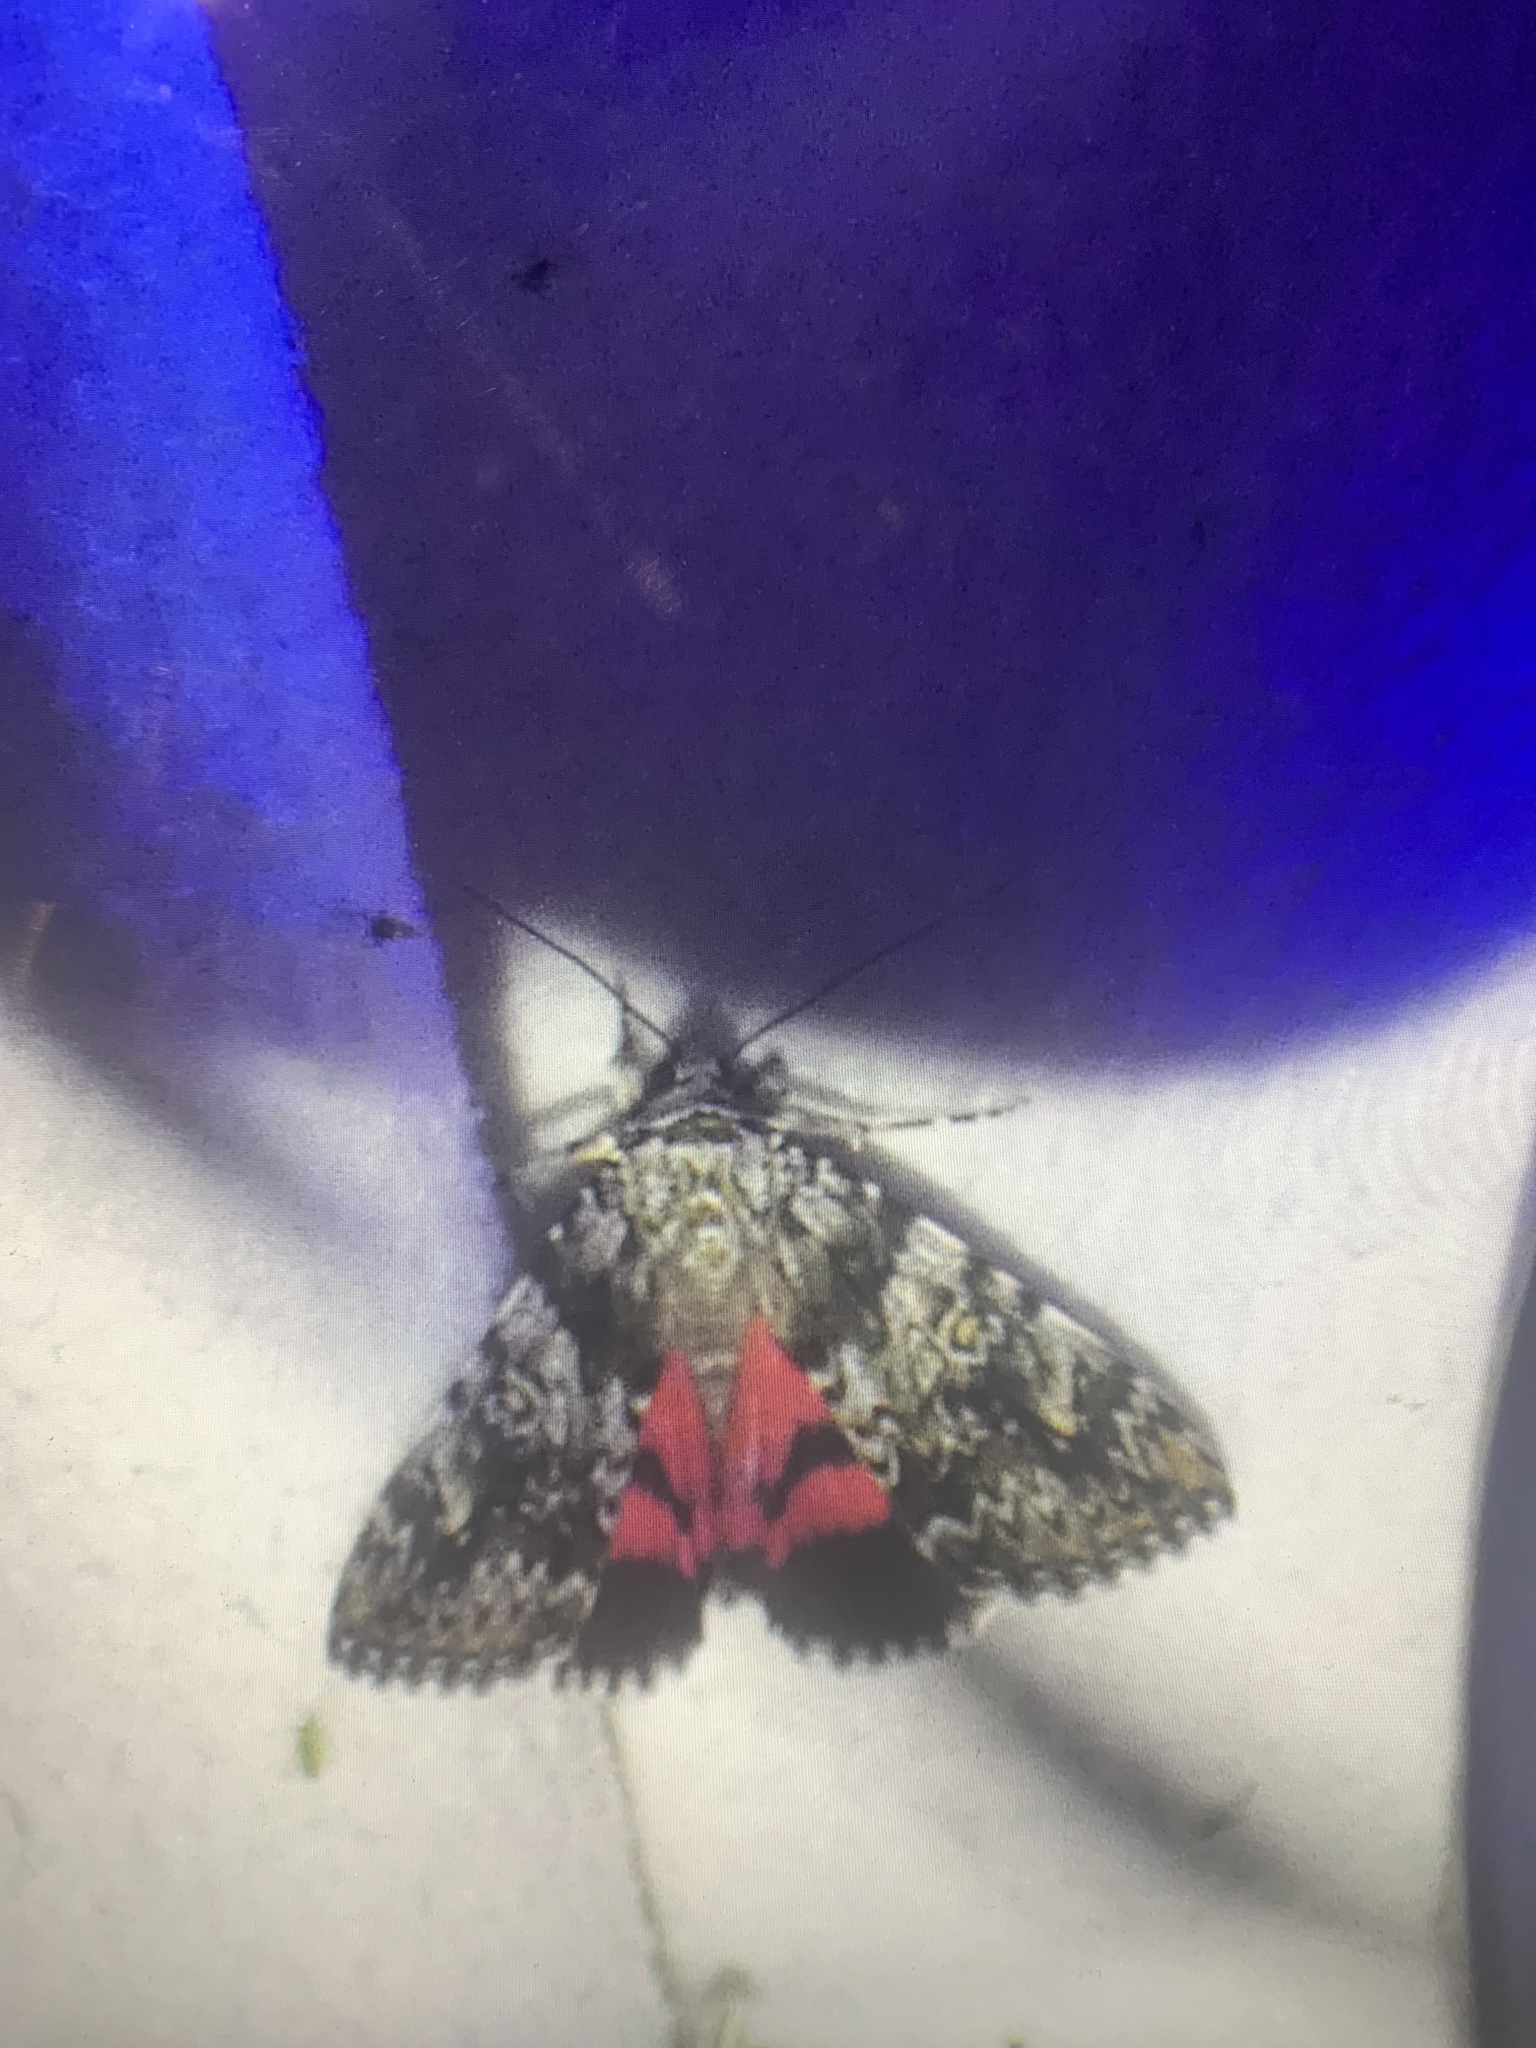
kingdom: Animalia
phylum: Arthropoda
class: Insecta
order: Lepidoptera
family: Erebidae
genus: Catocala
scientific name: Catocala promissa
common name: Light crimson underwing
